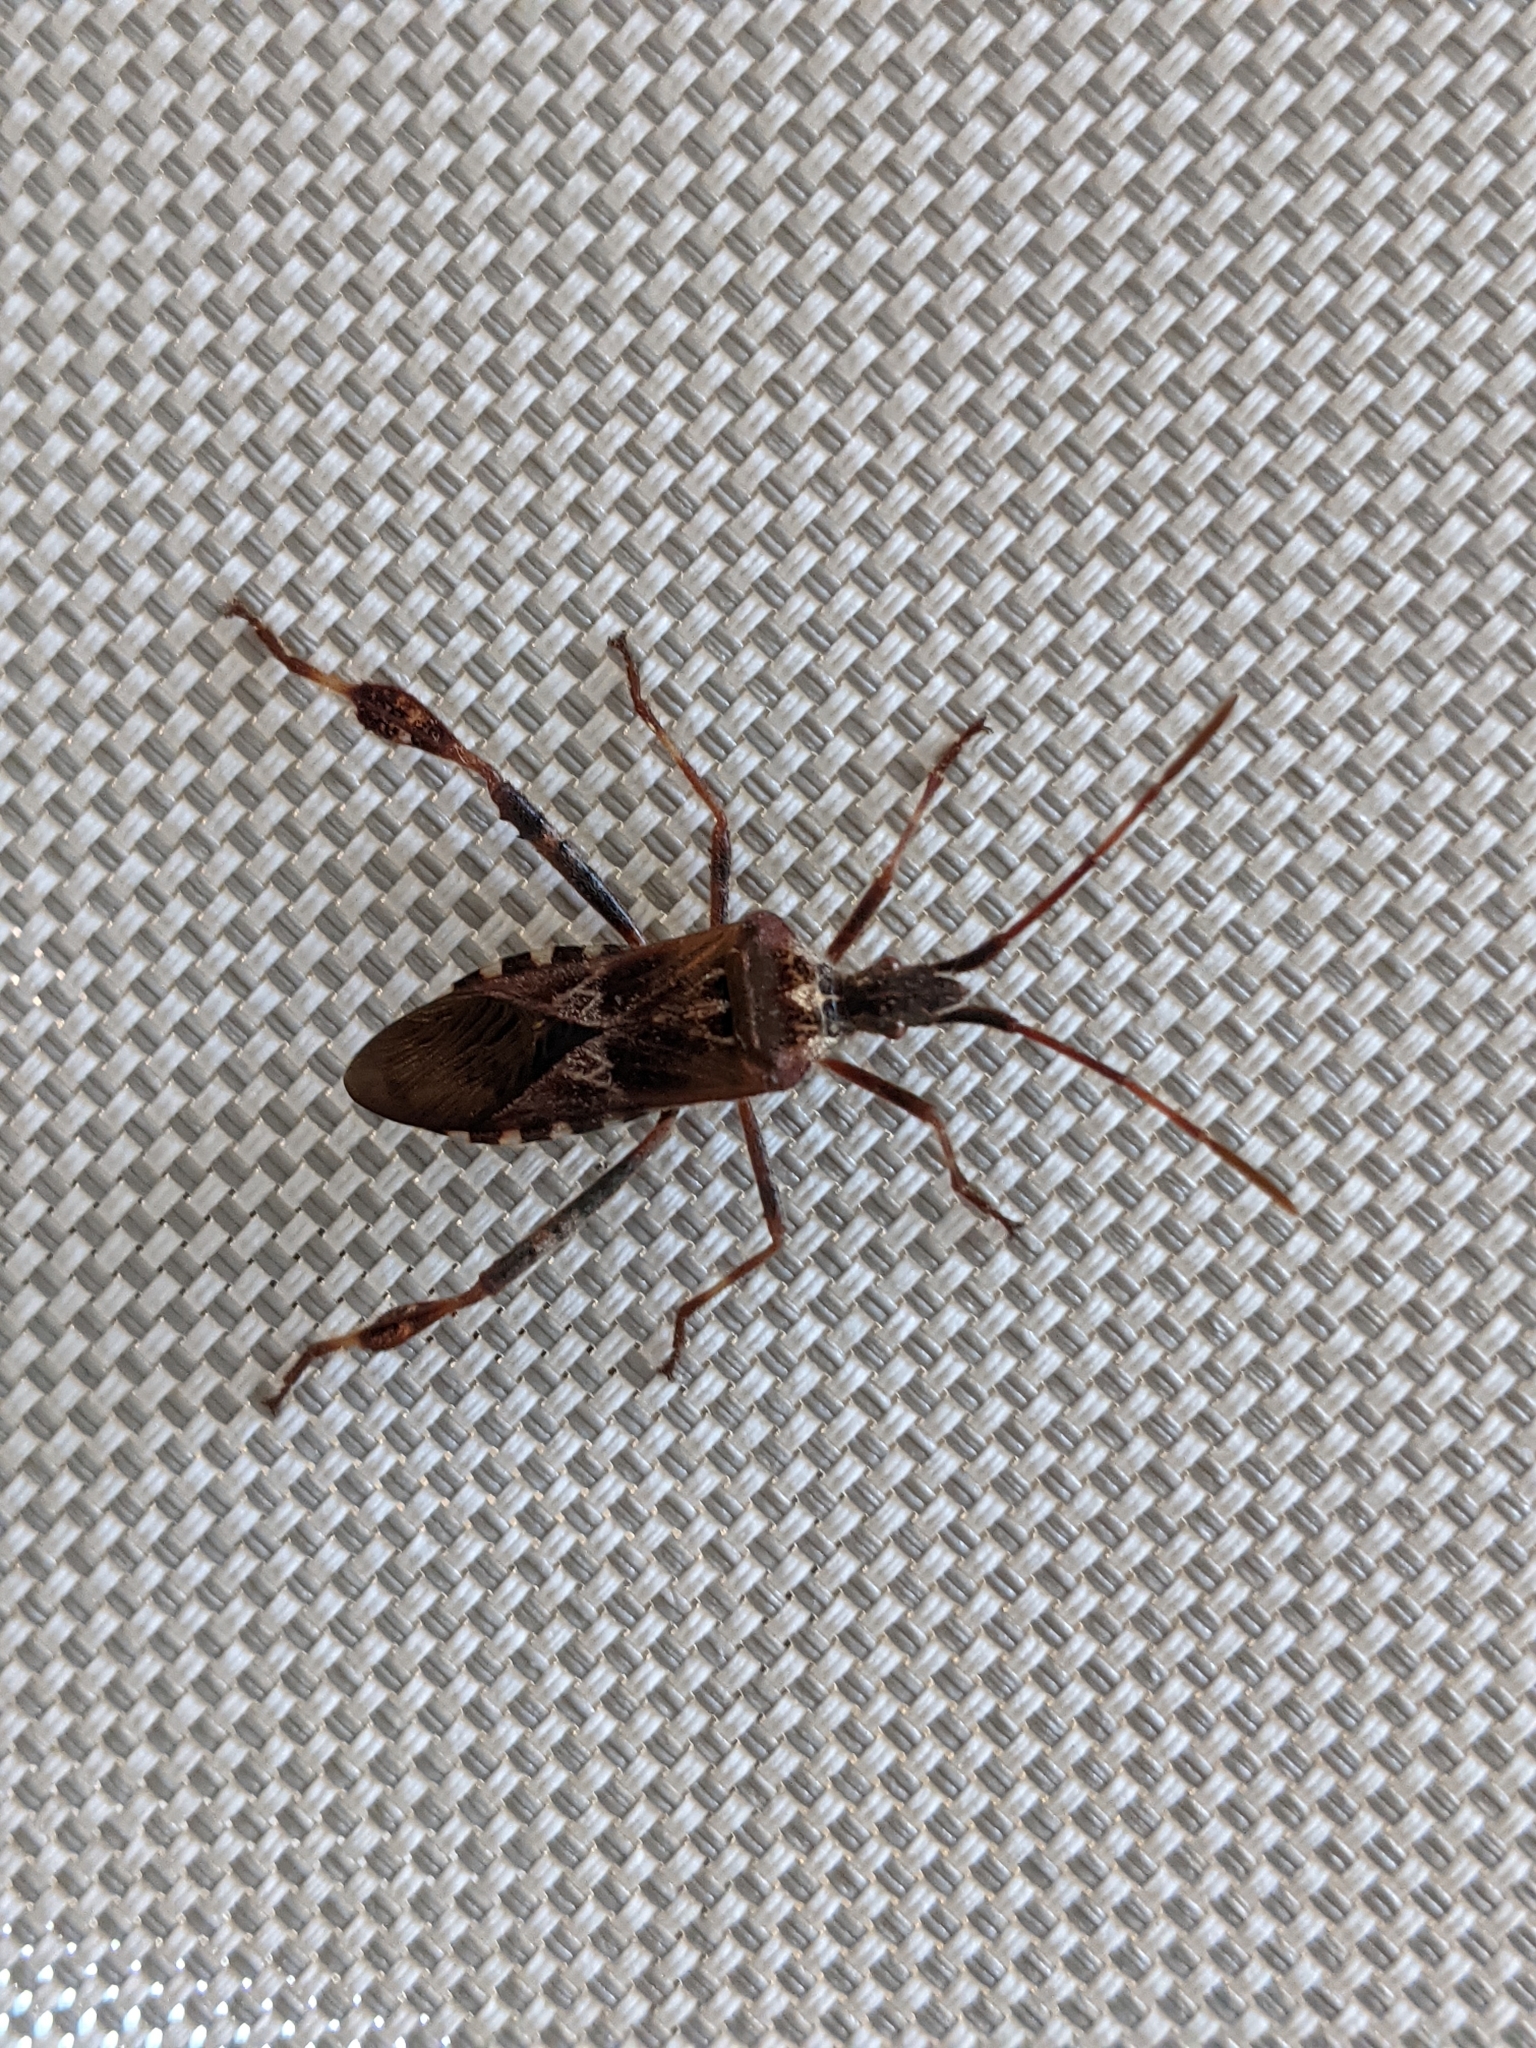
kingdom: Animalia
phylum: Arthropoda
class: Insecta
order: Hemiptera
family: Coreidae
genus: Leptoglossus
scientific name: Leptoglossus occidentalis
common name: Western conifer-seed bug
